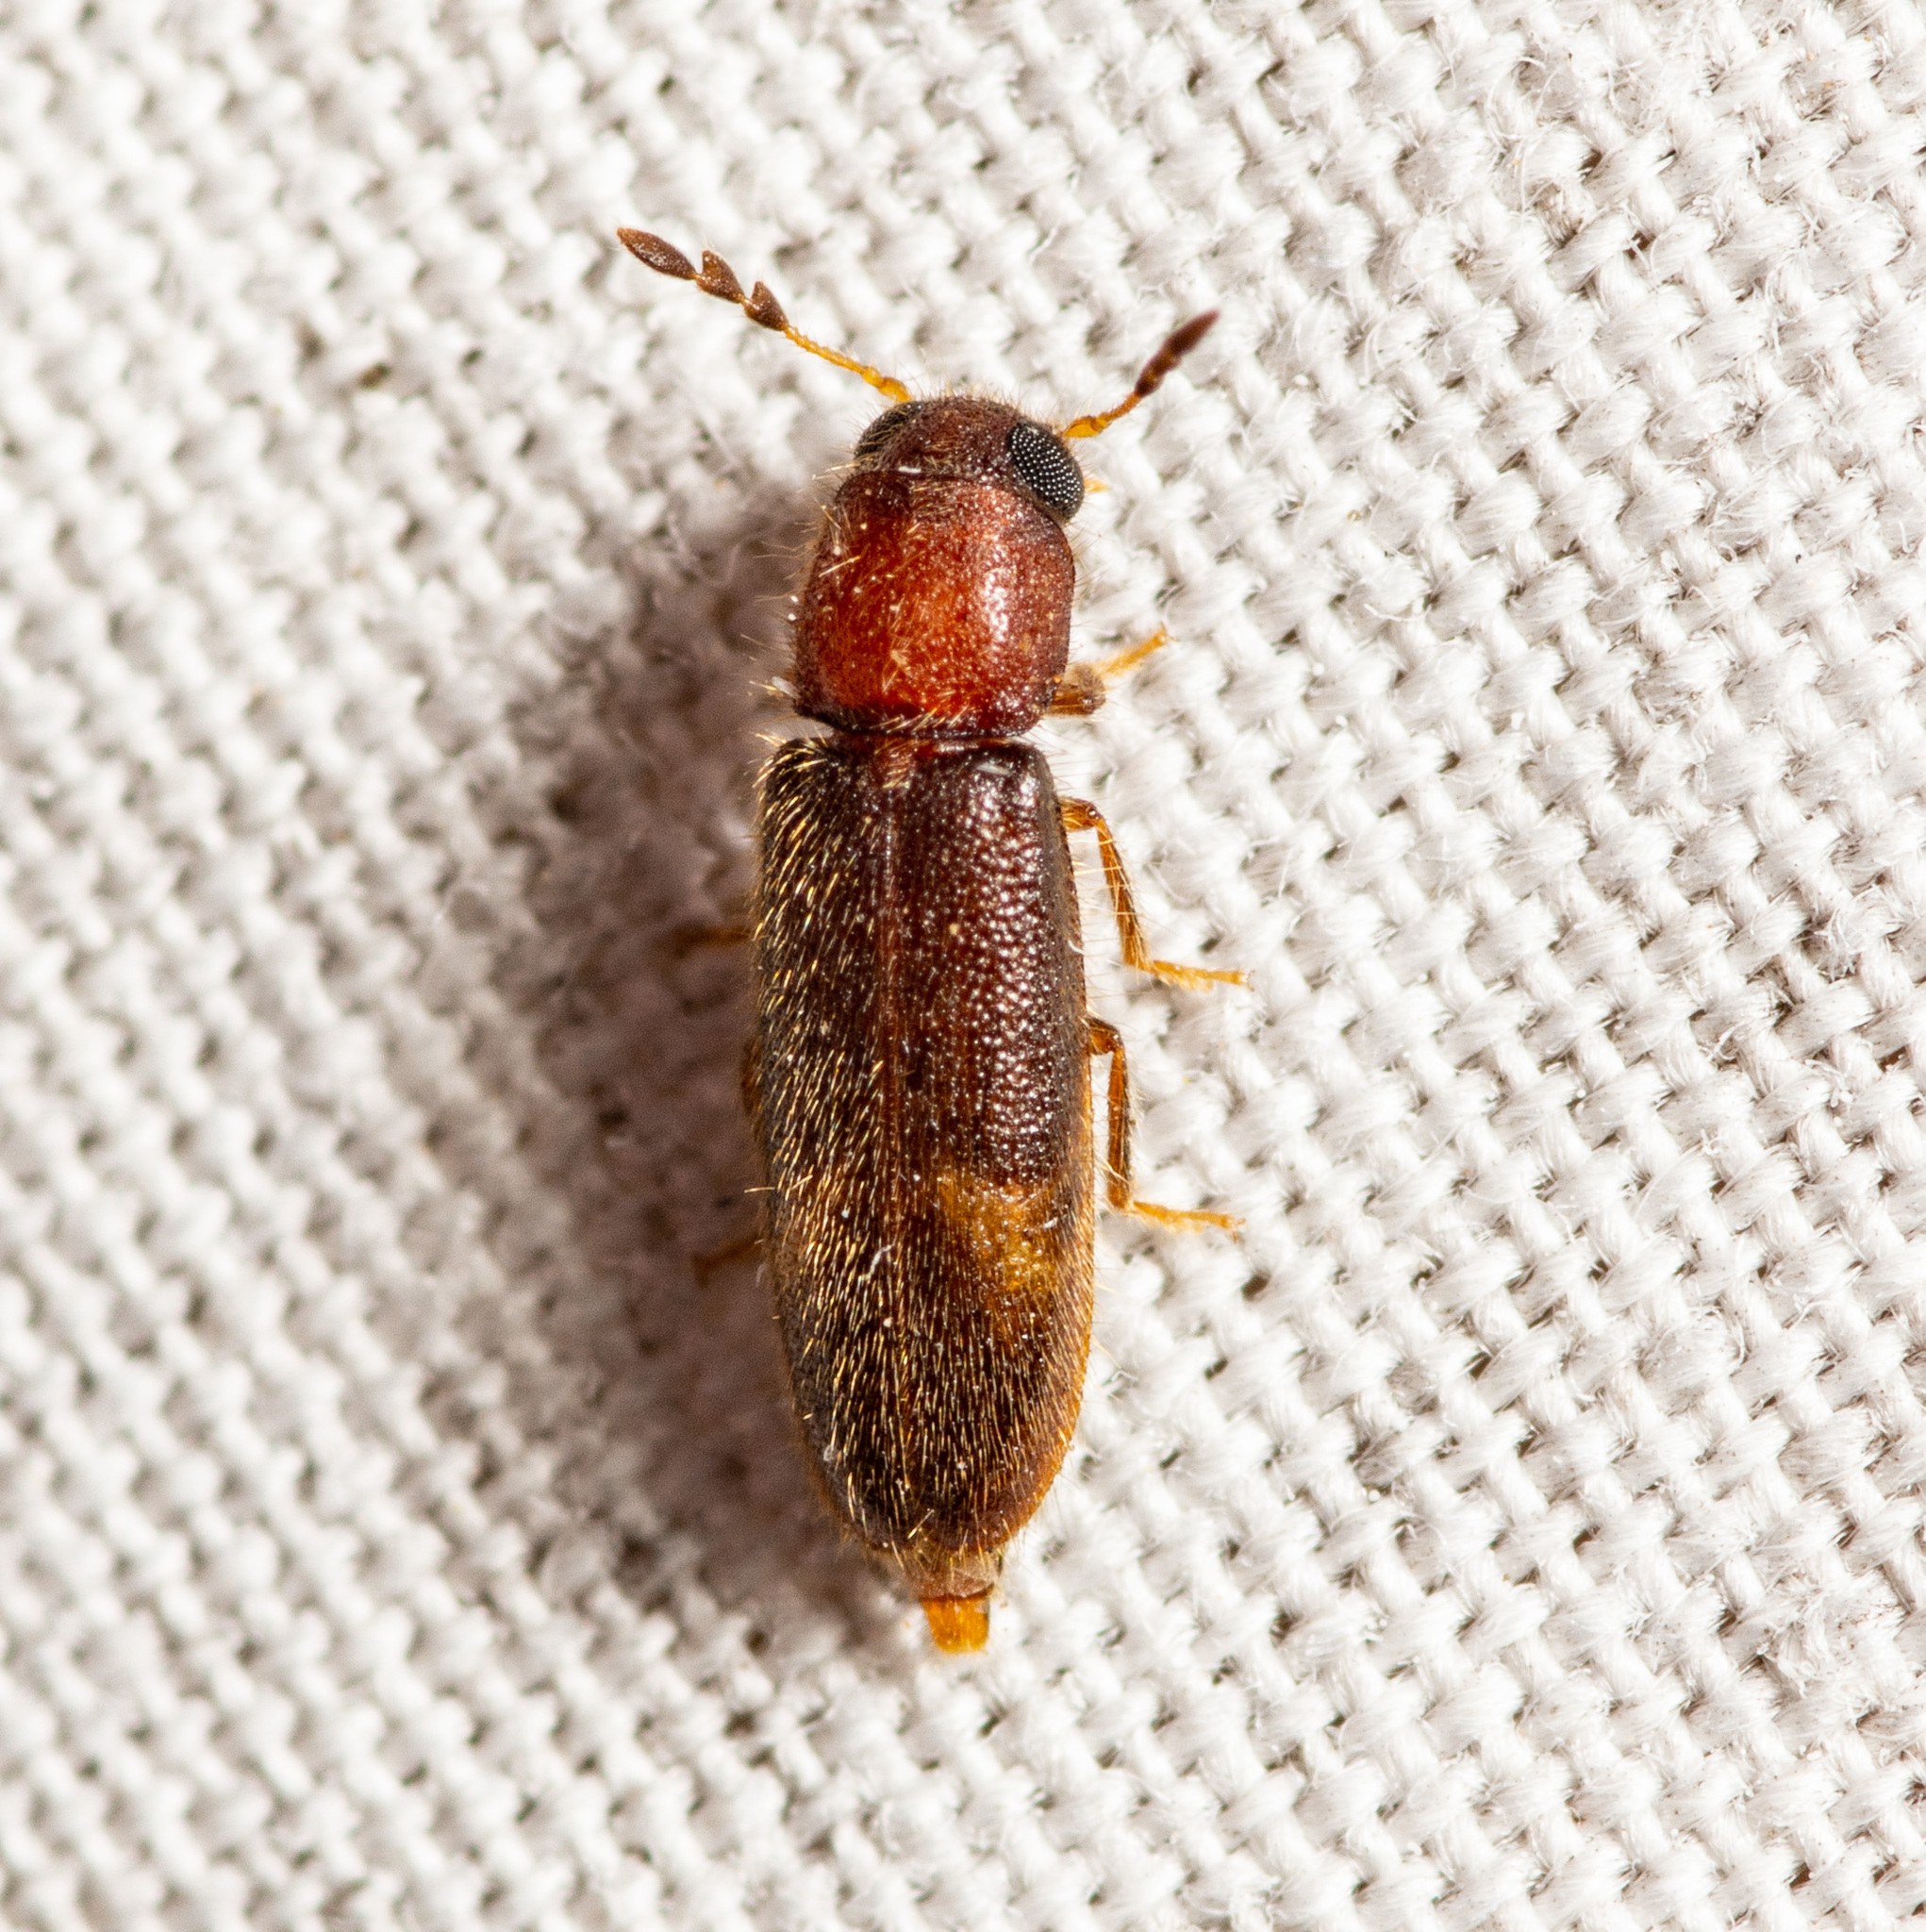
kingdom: Animalia
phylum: Arthropoda
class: Insecta
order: Coleoptera
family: Cleridae
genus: Neorthopleura
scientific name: Neorthopleura texana
